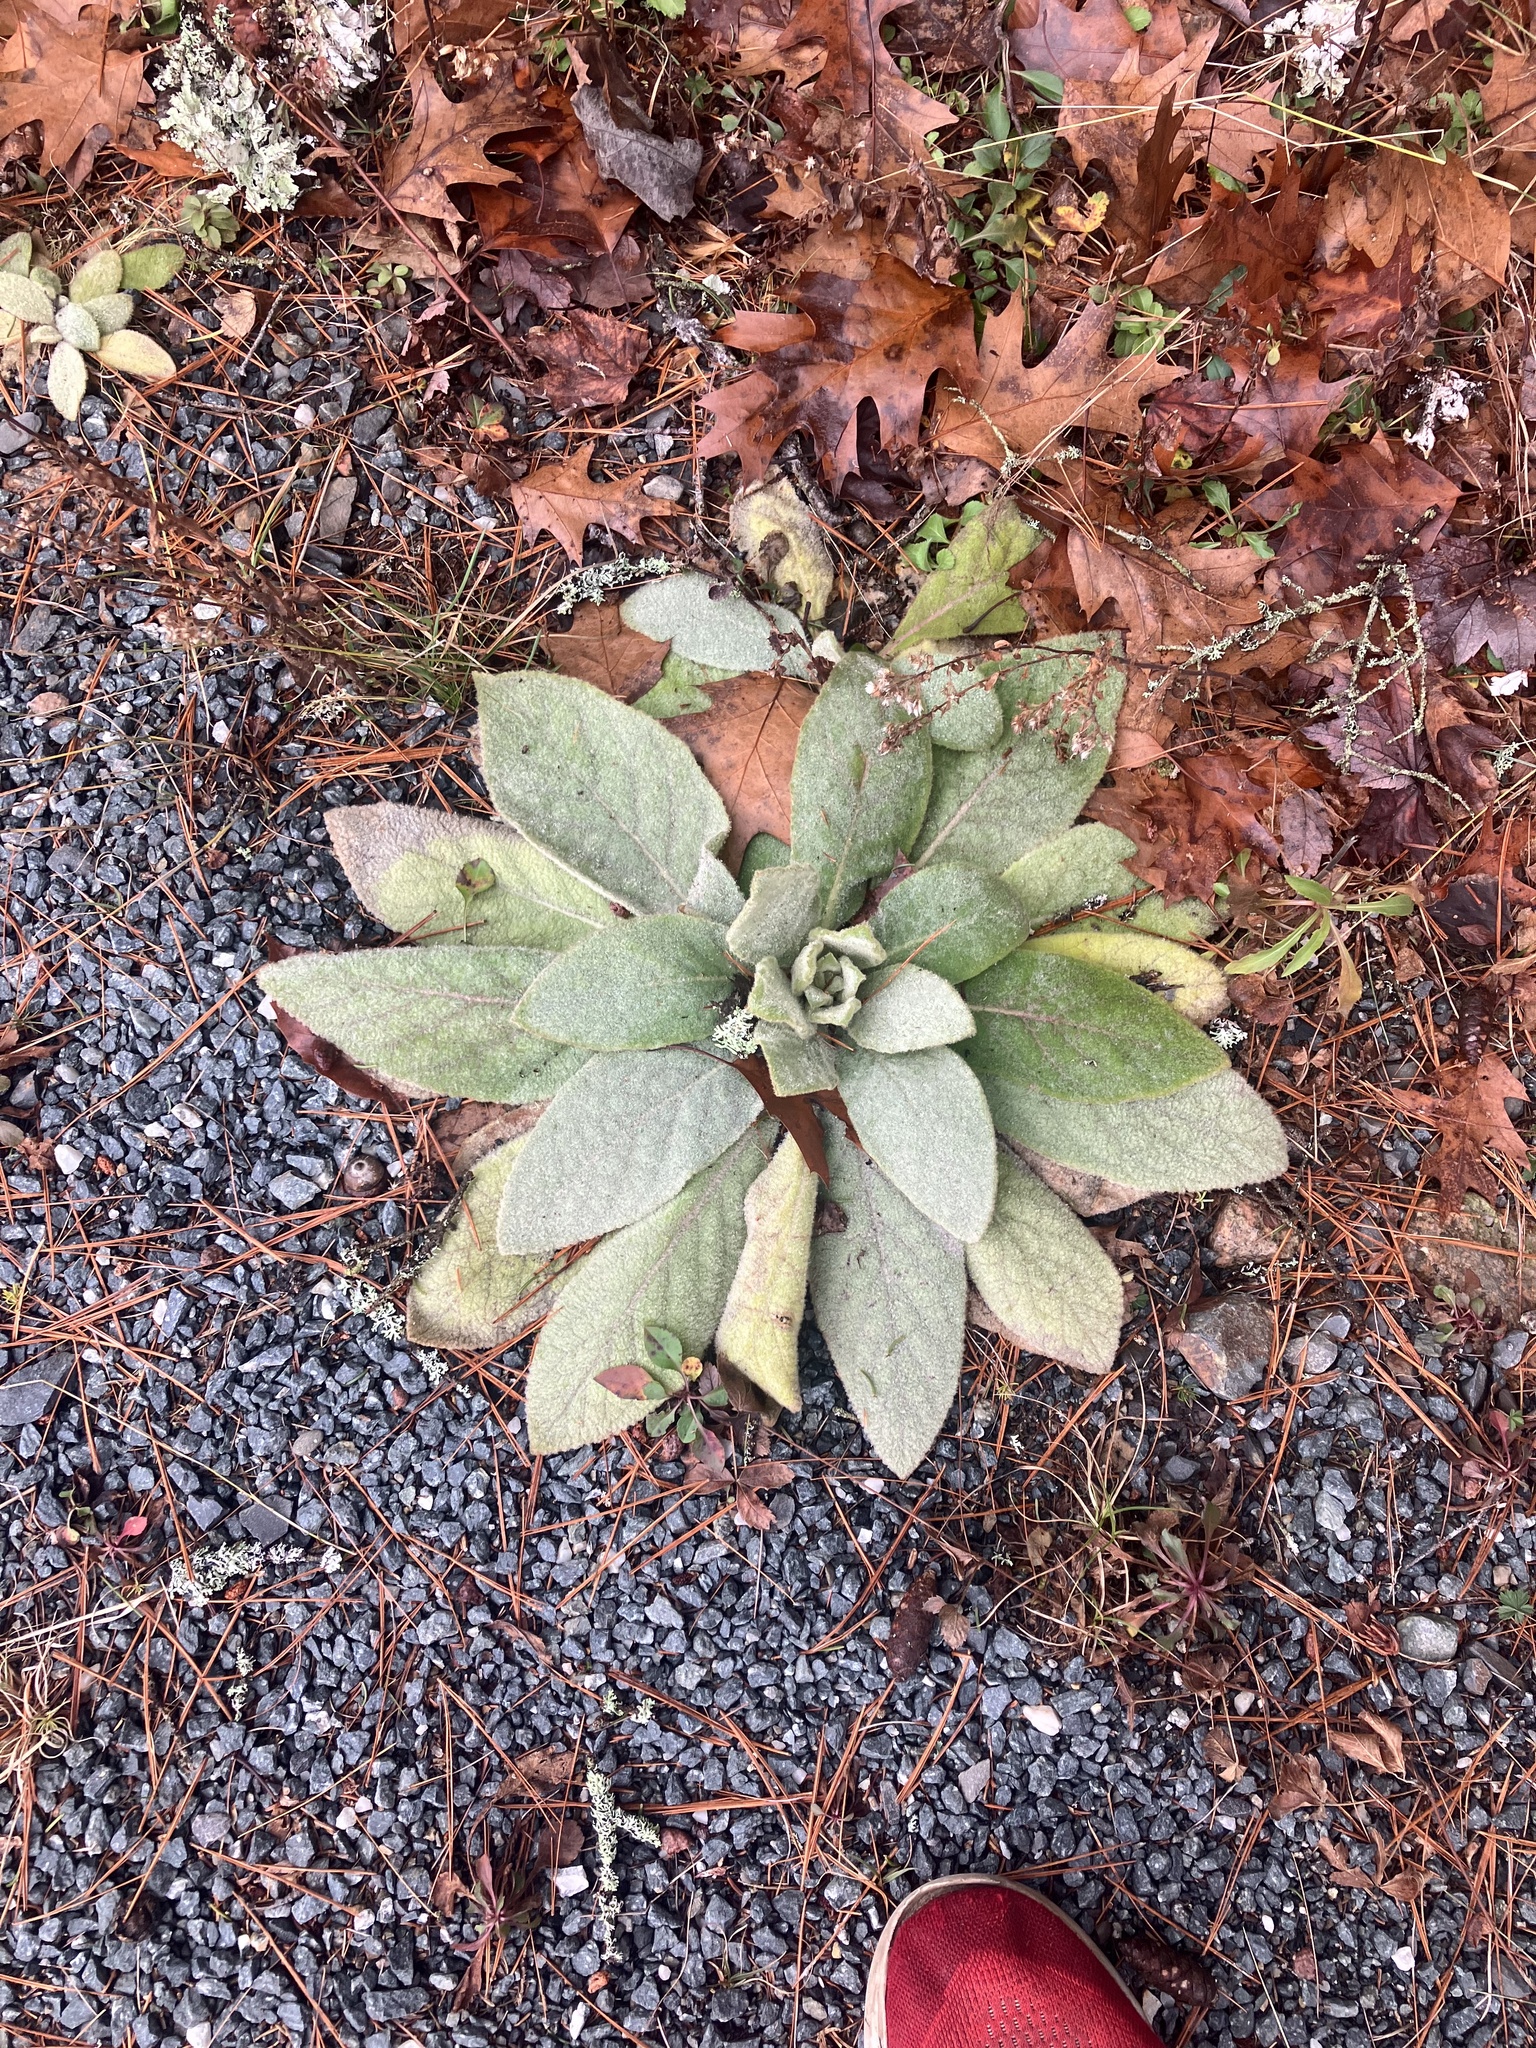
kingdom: Plantae
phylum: Tracheophyta
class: Magnoliopsida
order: Lamiales
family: Scrophulariaceae
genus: Verbascum
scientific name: Verbascum thapsus
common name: Common mullein
